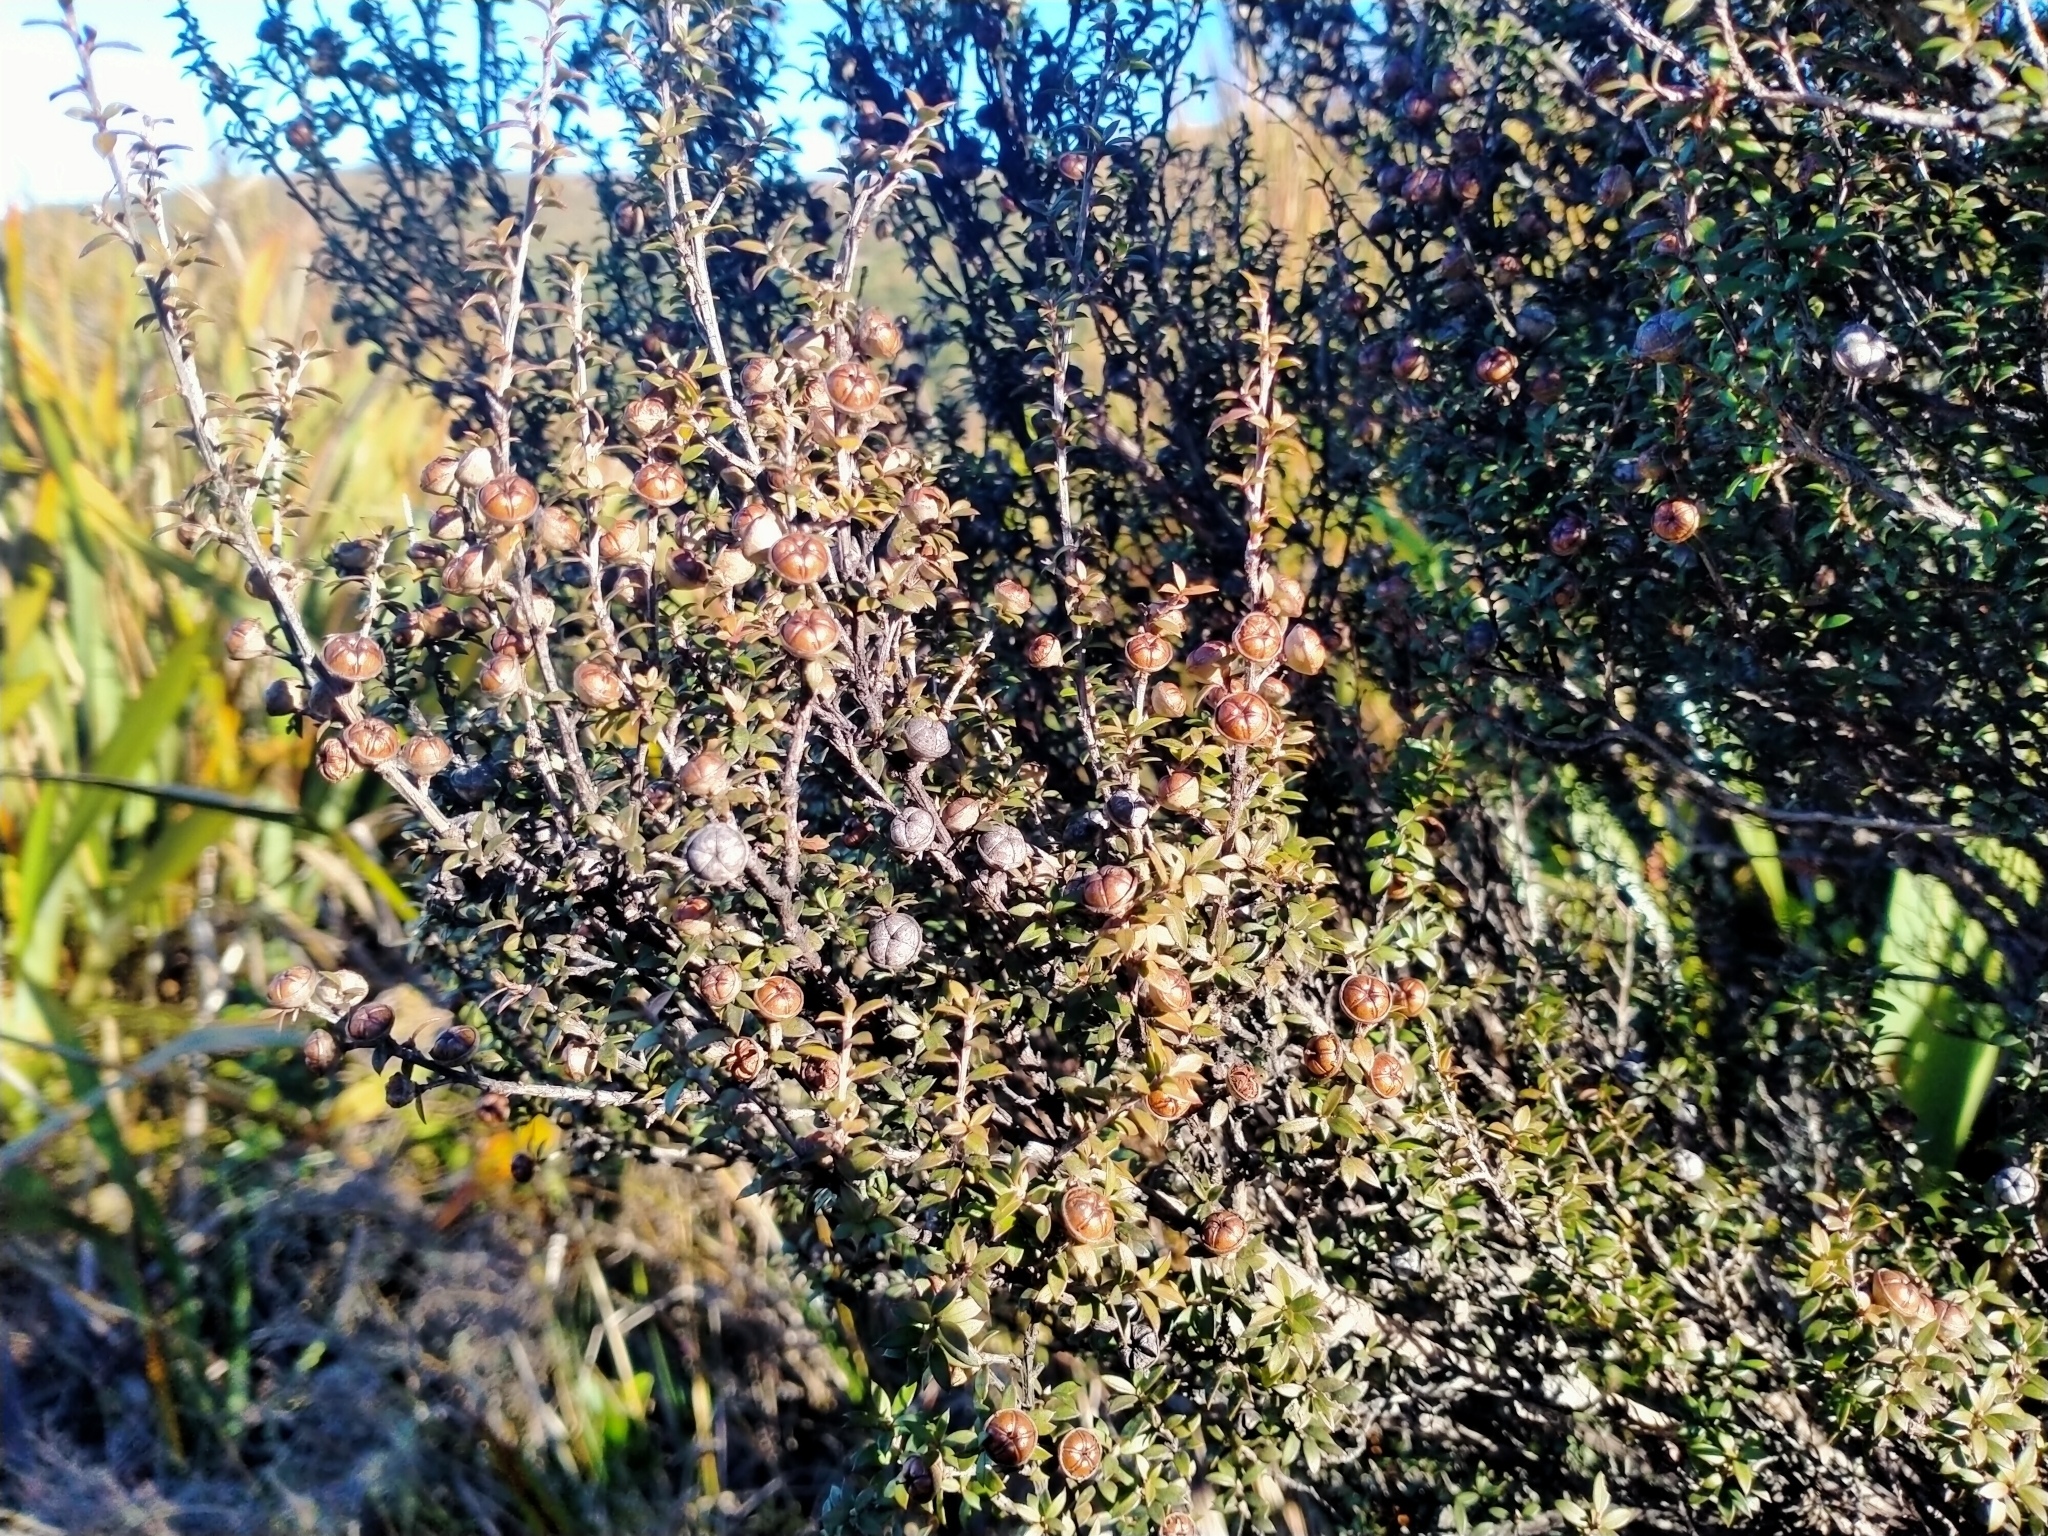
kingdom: Plantae
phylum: Tracheophyta
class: Magnoliopsida
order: Myrtales
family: Myrtaceae
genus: Leptospermum
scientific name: Leptospermum scoparium
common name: Broom tea-tree
